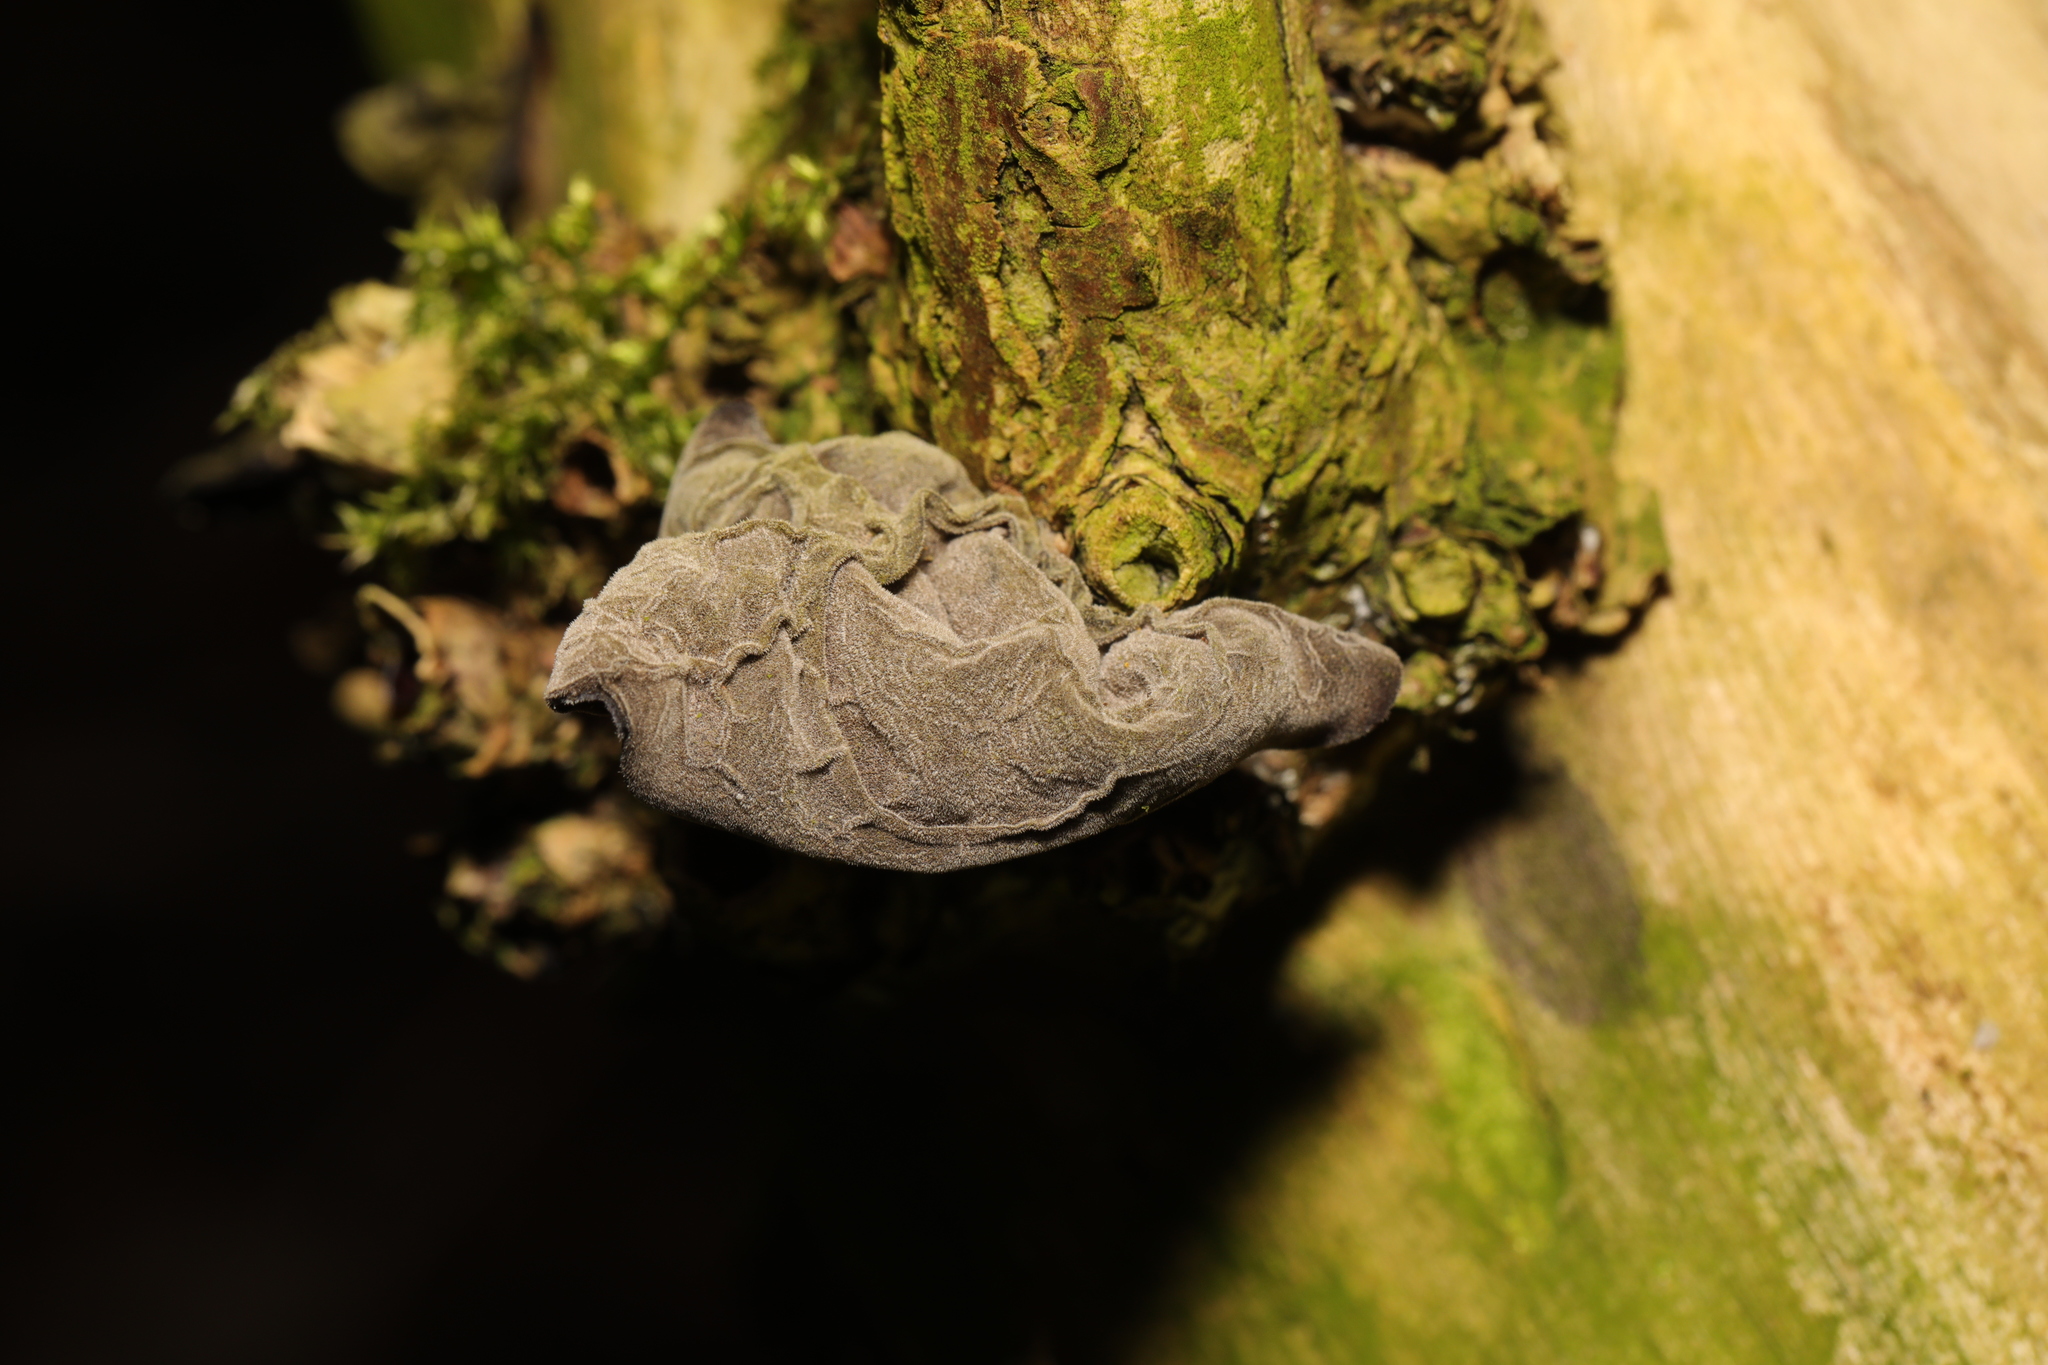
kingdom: Fungi
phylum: Basidiomycota
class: Agaricomycetes
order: Auriculariales
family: Auriculariaceae
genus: Auricularia
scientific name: Auricularia auricula-judae
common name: Jelly ear
